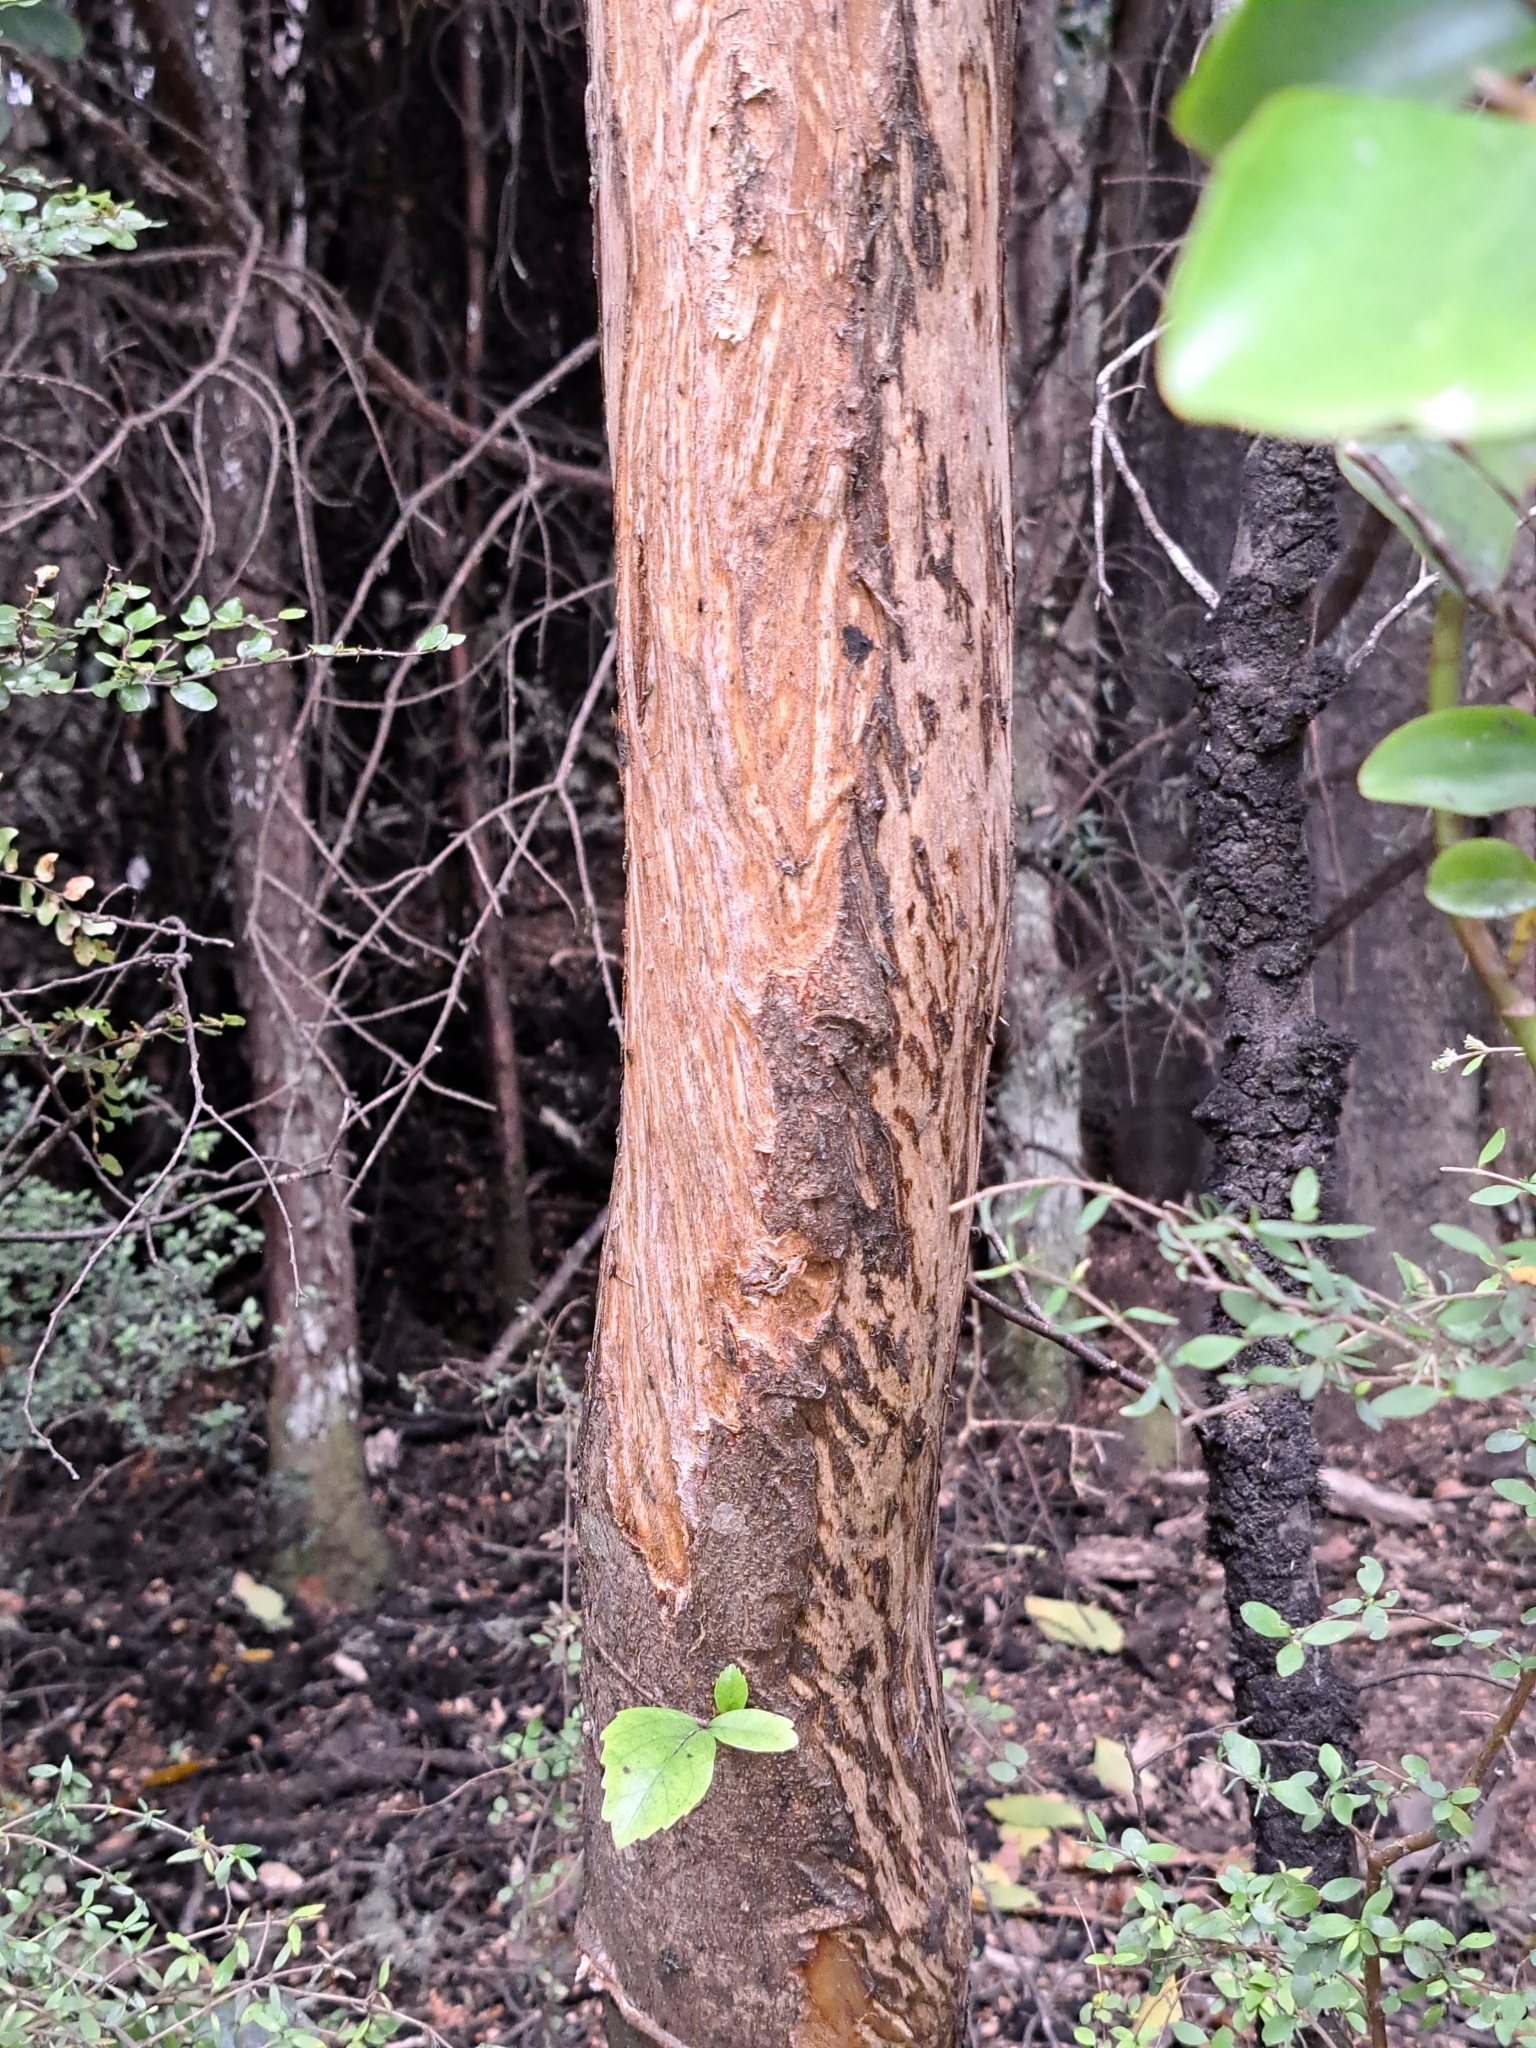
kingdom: Plantae
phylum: Tracheophyta
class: Magnoliopsida
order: Apiales
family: Araliaceae
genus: Neopanax
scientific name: Neopanax colensoi
